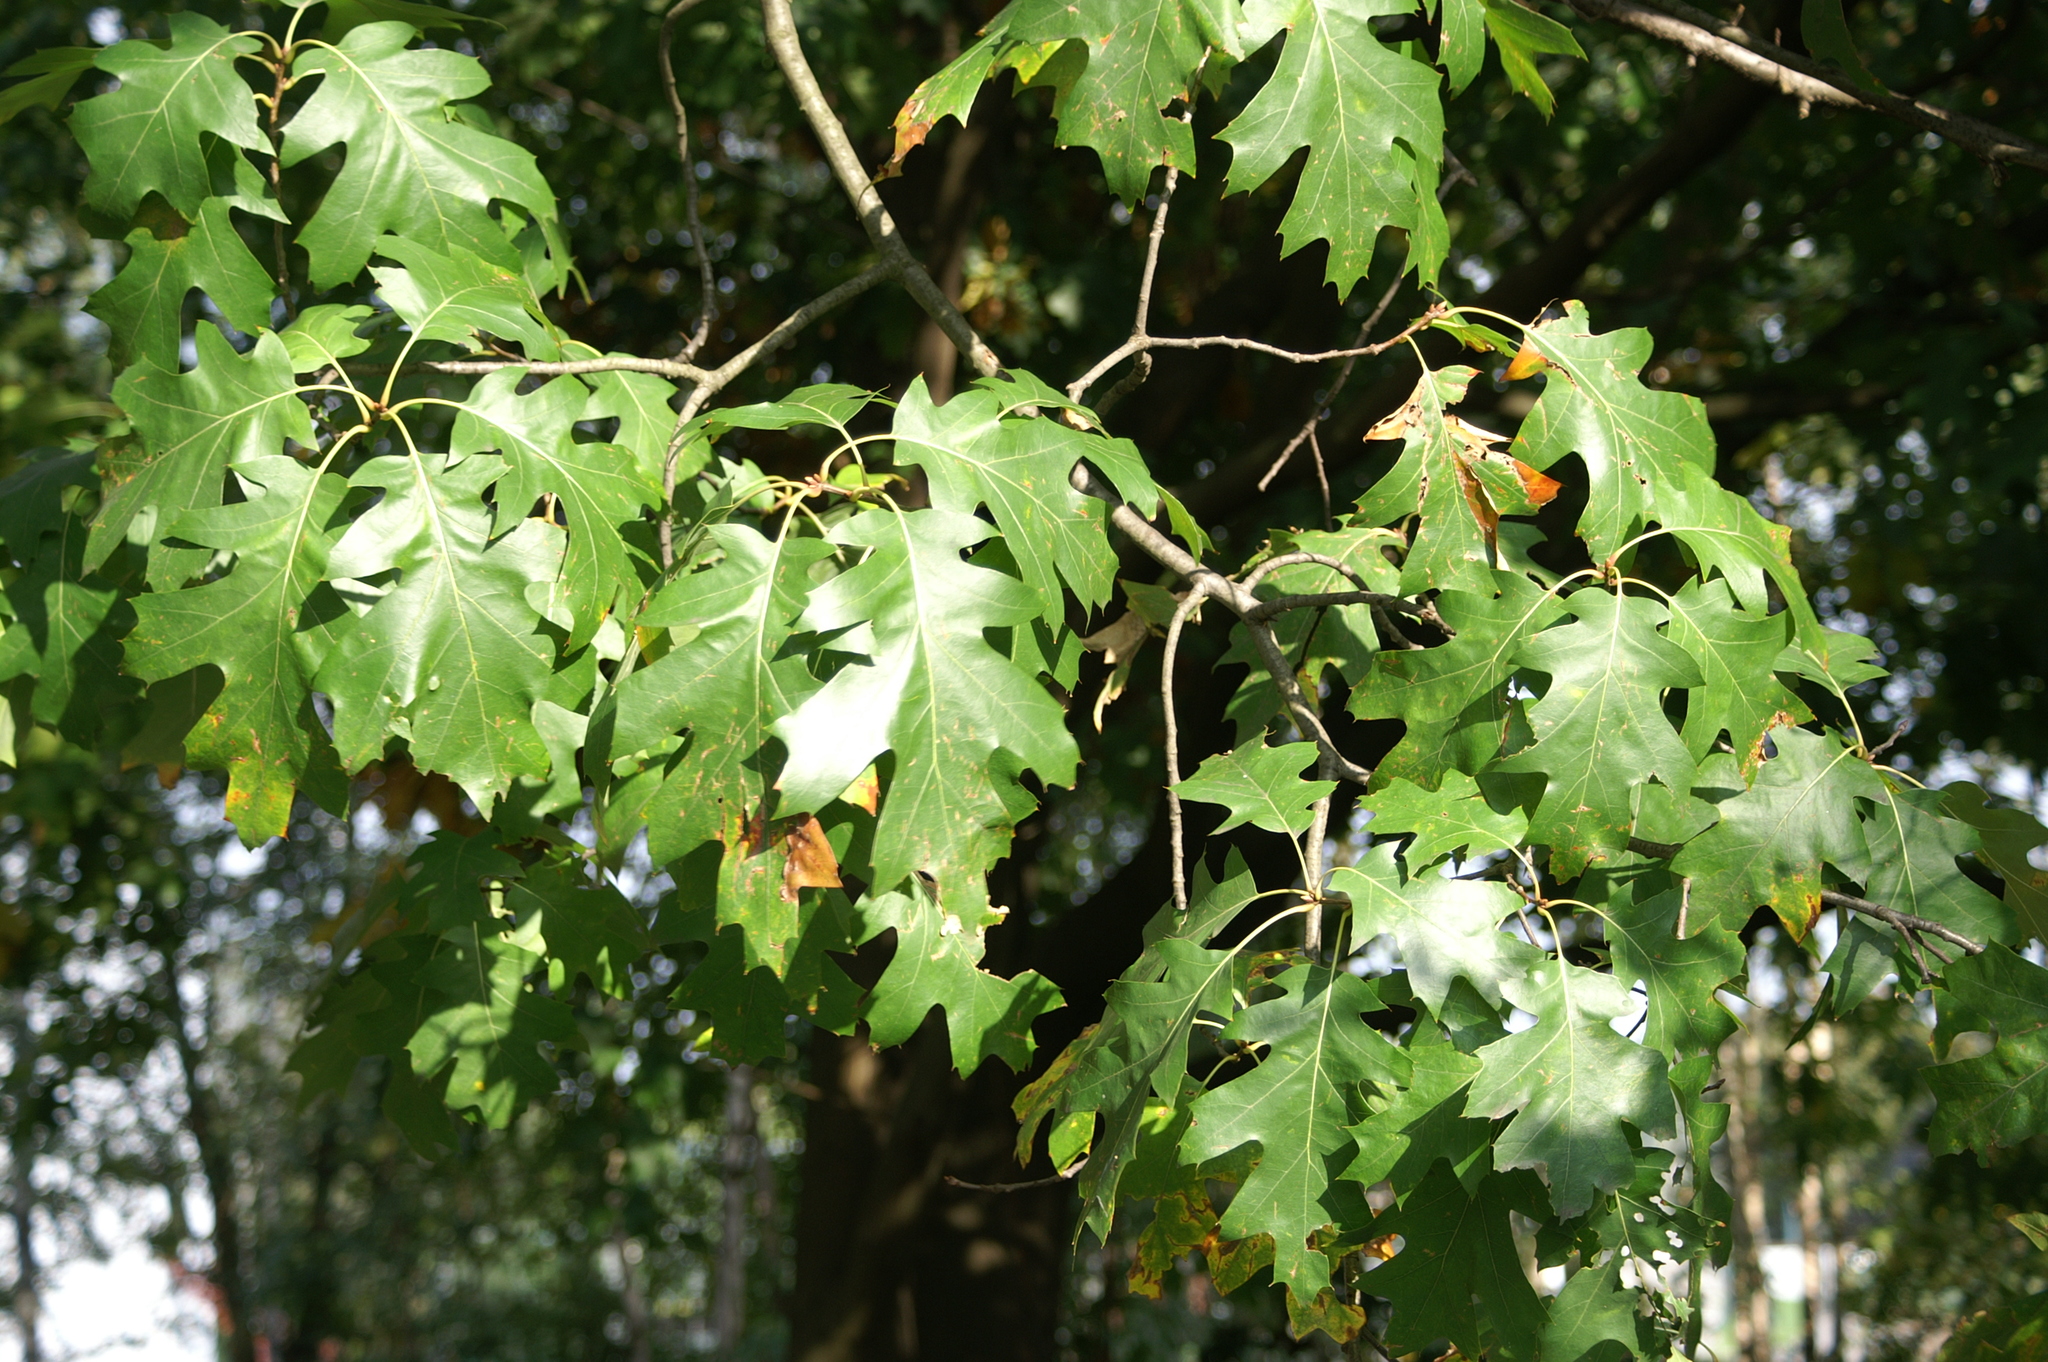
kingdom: Plantae
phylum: Tracheophyta
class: Magnoliopsida
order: Fagales
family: Fagaceae
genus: Quercus
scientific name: Quercus rubra
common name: Red oak
